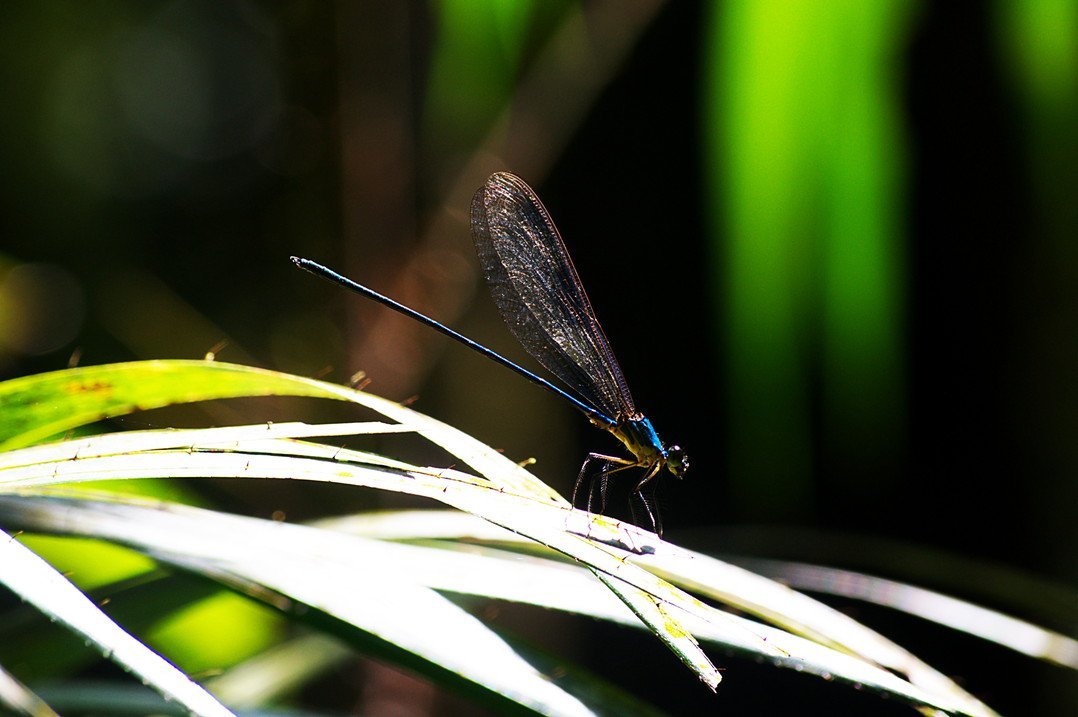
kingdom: Animalia
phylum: Arthropoda
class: Insecta
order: Odonata
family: Calopterygidae
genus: Vestalis
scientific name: Vestalis gracilis
